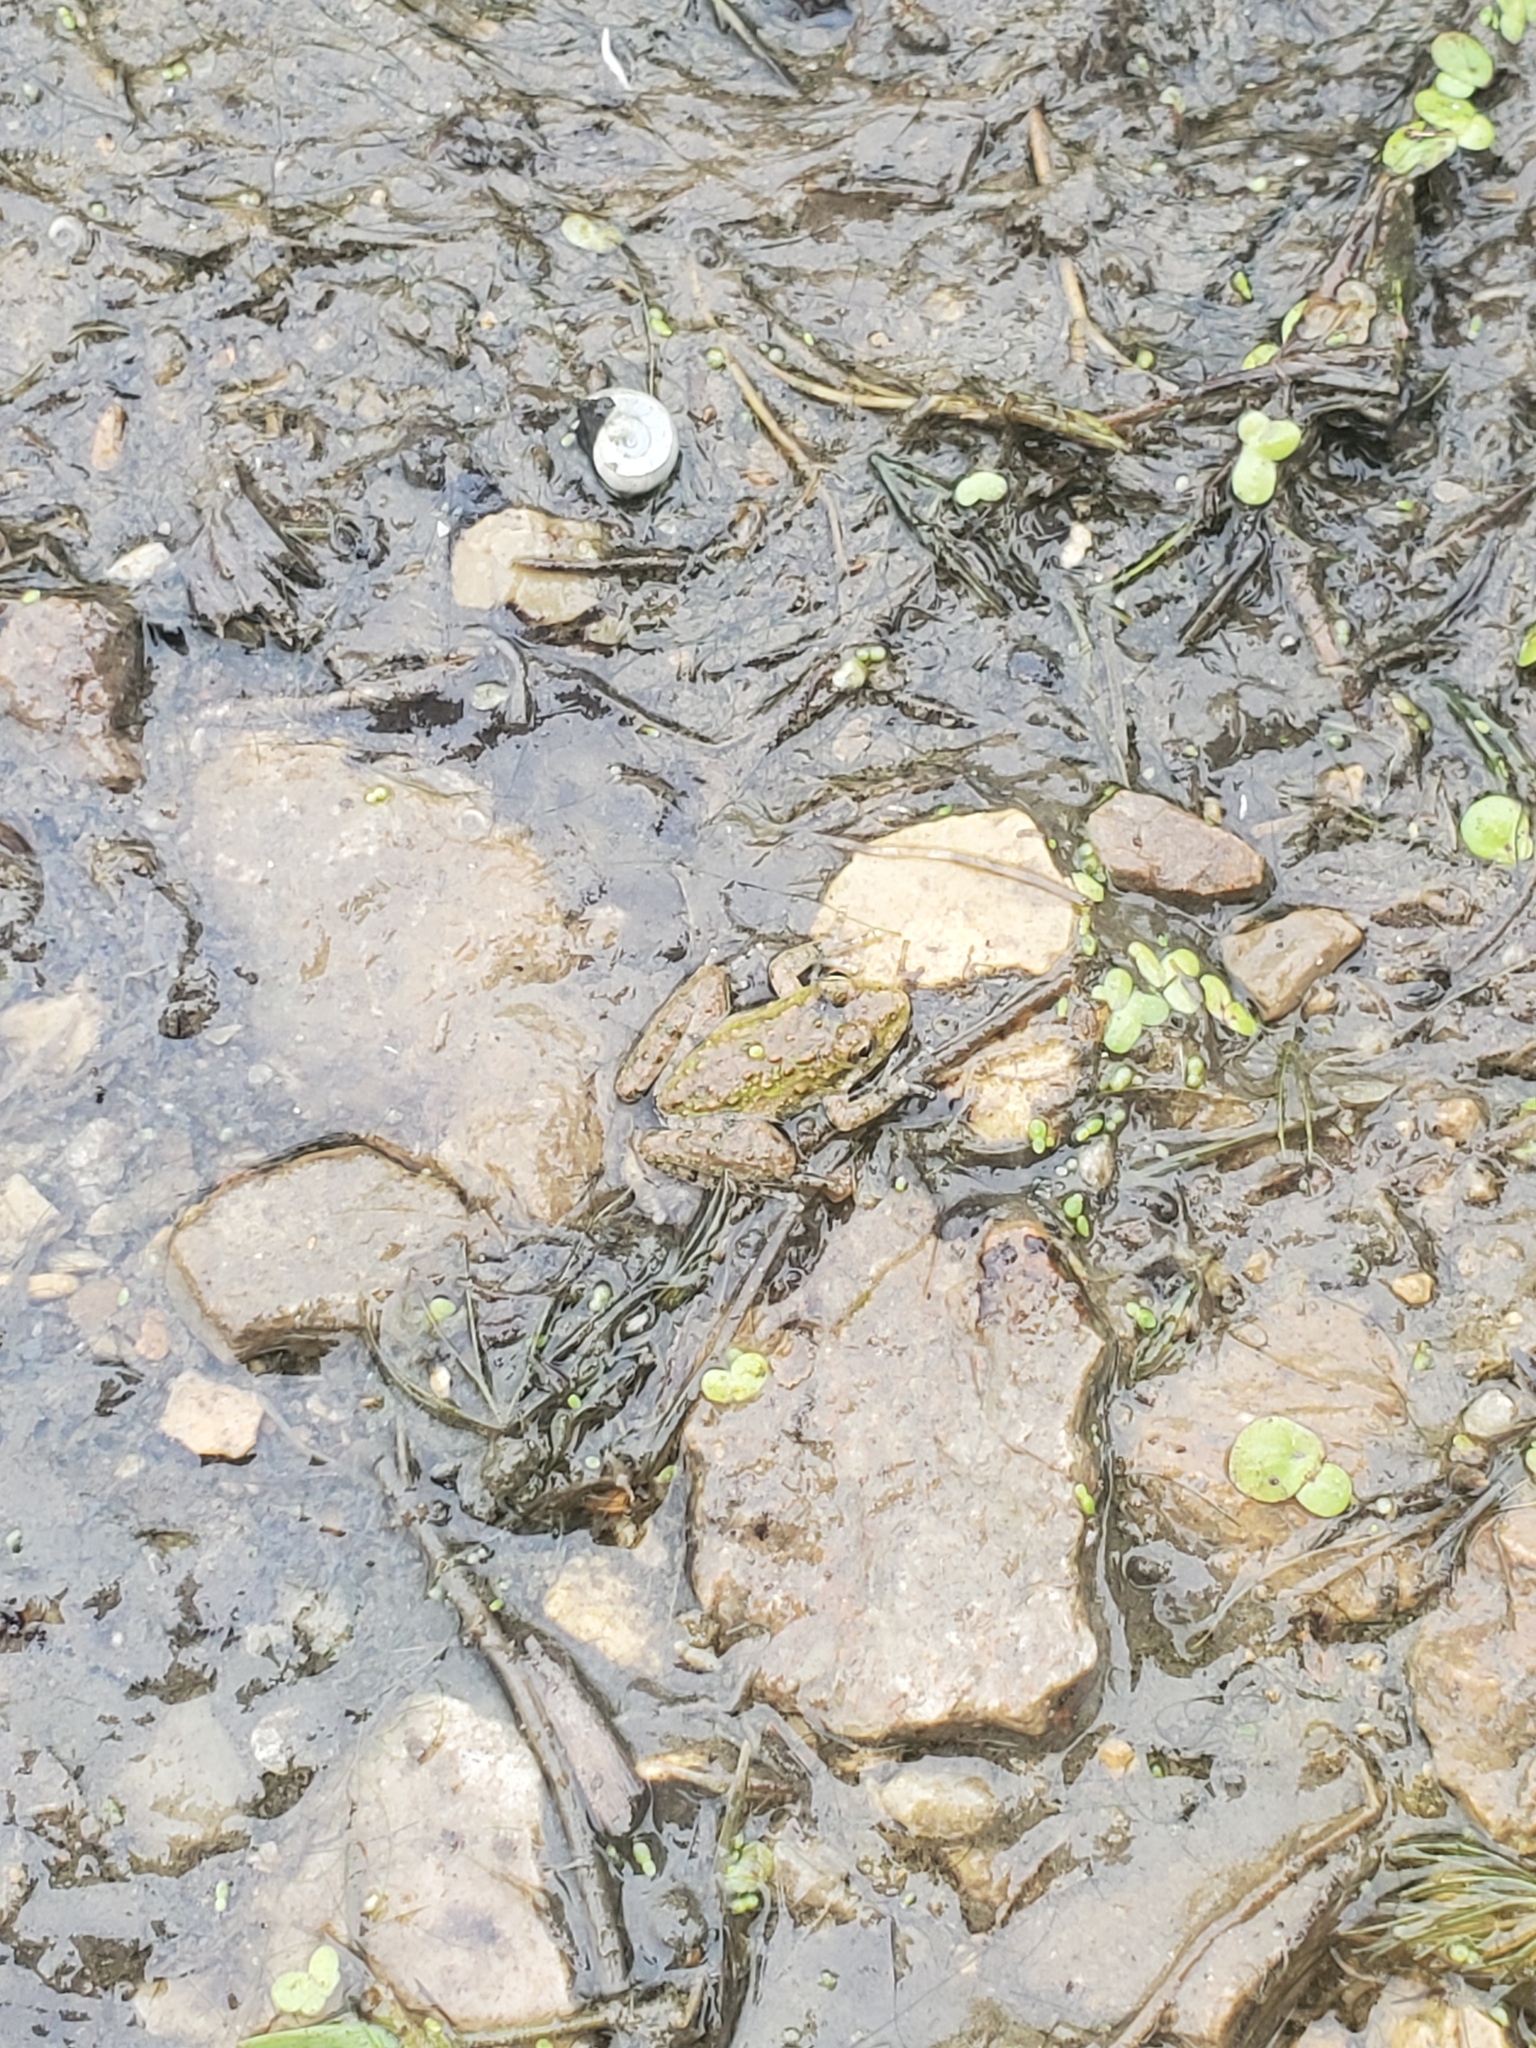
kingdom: Animalia
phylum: Chordata
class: Amphibia
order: Anura
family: Hylidae
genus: Acris
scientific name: Acris blanchardi
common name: Blanchard's cricket frog
